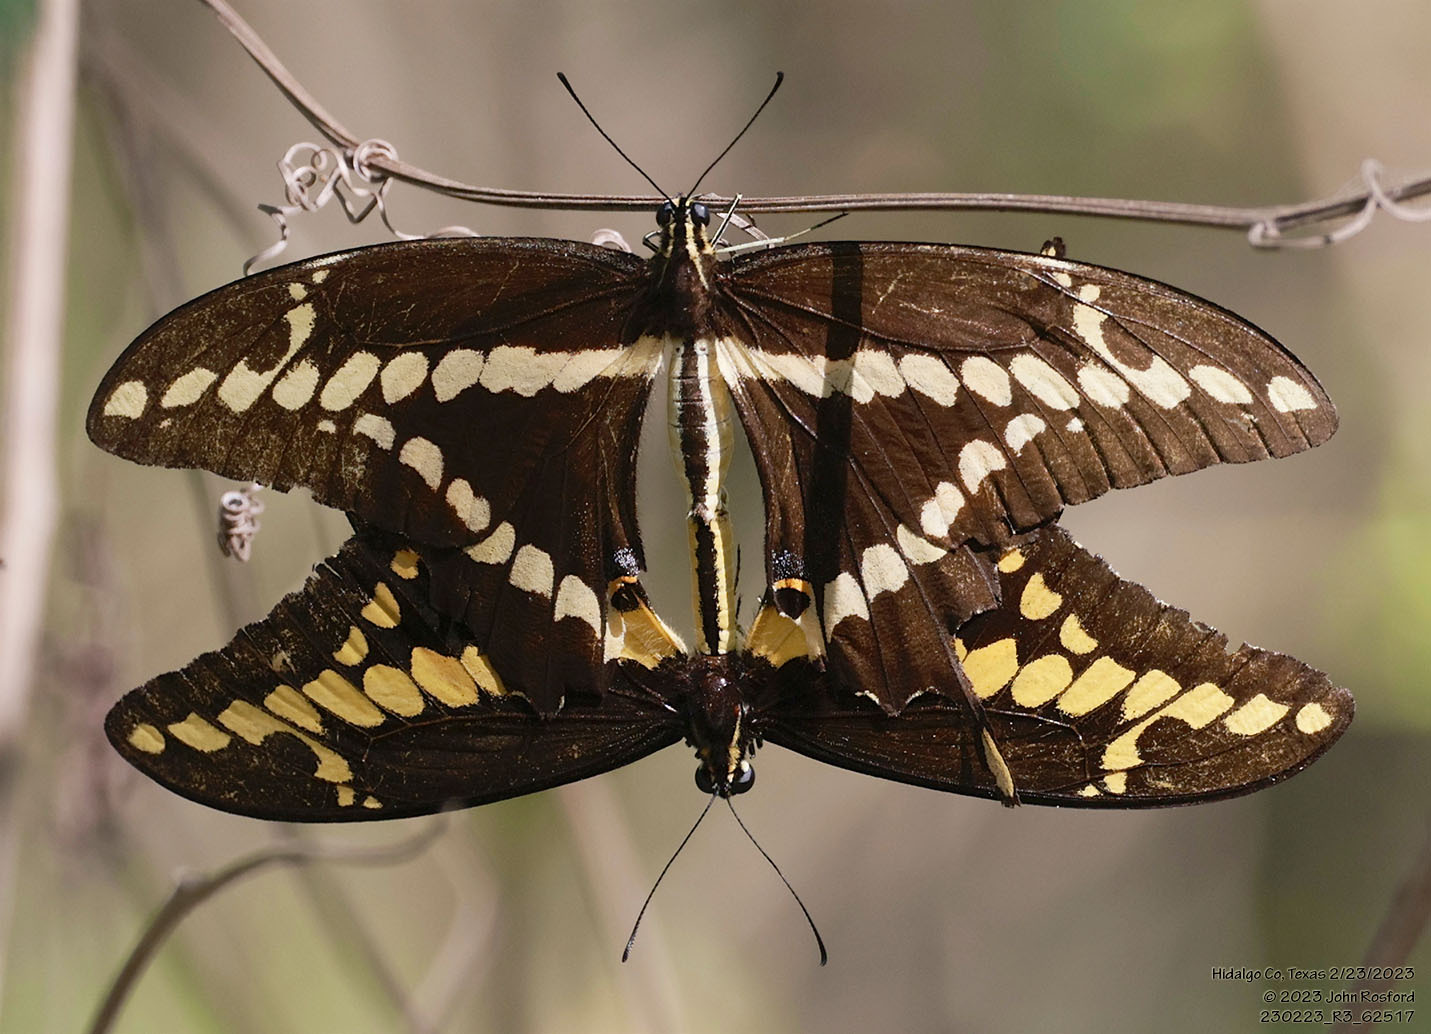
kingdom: Animalia
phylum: Arthropoda
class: Insecta
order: Lepidoptera
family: Papilionidae
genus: Papilio
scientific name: Papilio rumiko
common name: Western giant swallowtail
